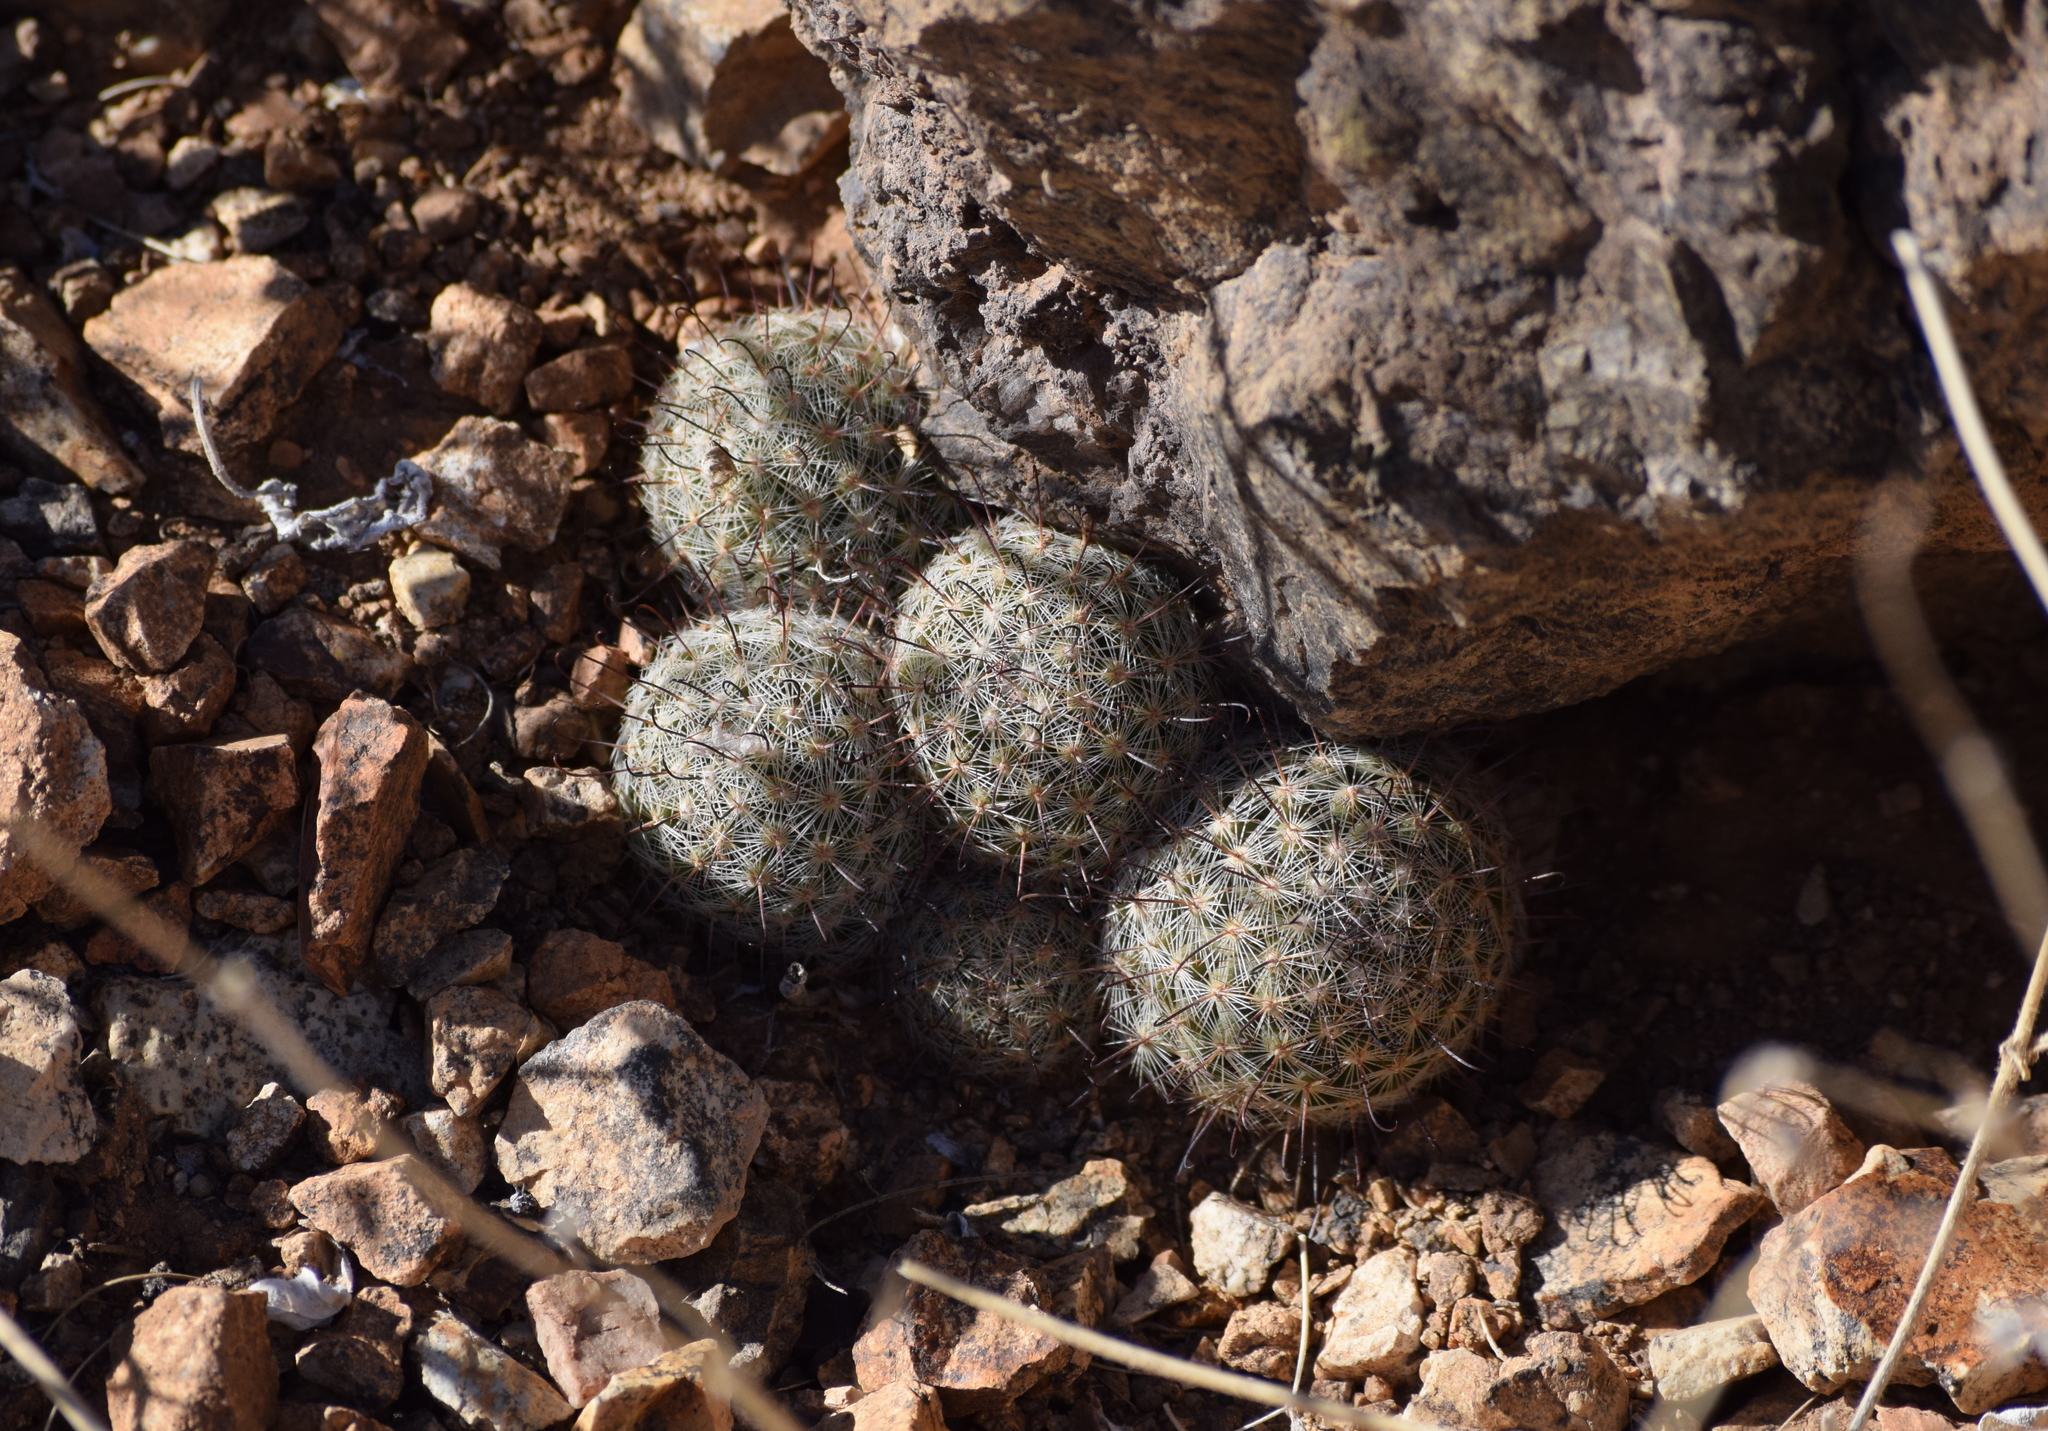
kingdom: Plantae
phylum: Tracheophyta
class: Magnoliopsida
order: Caryophyllales
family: Cactaceae
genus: Cochemiea
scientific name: Cochemiea grahamii
